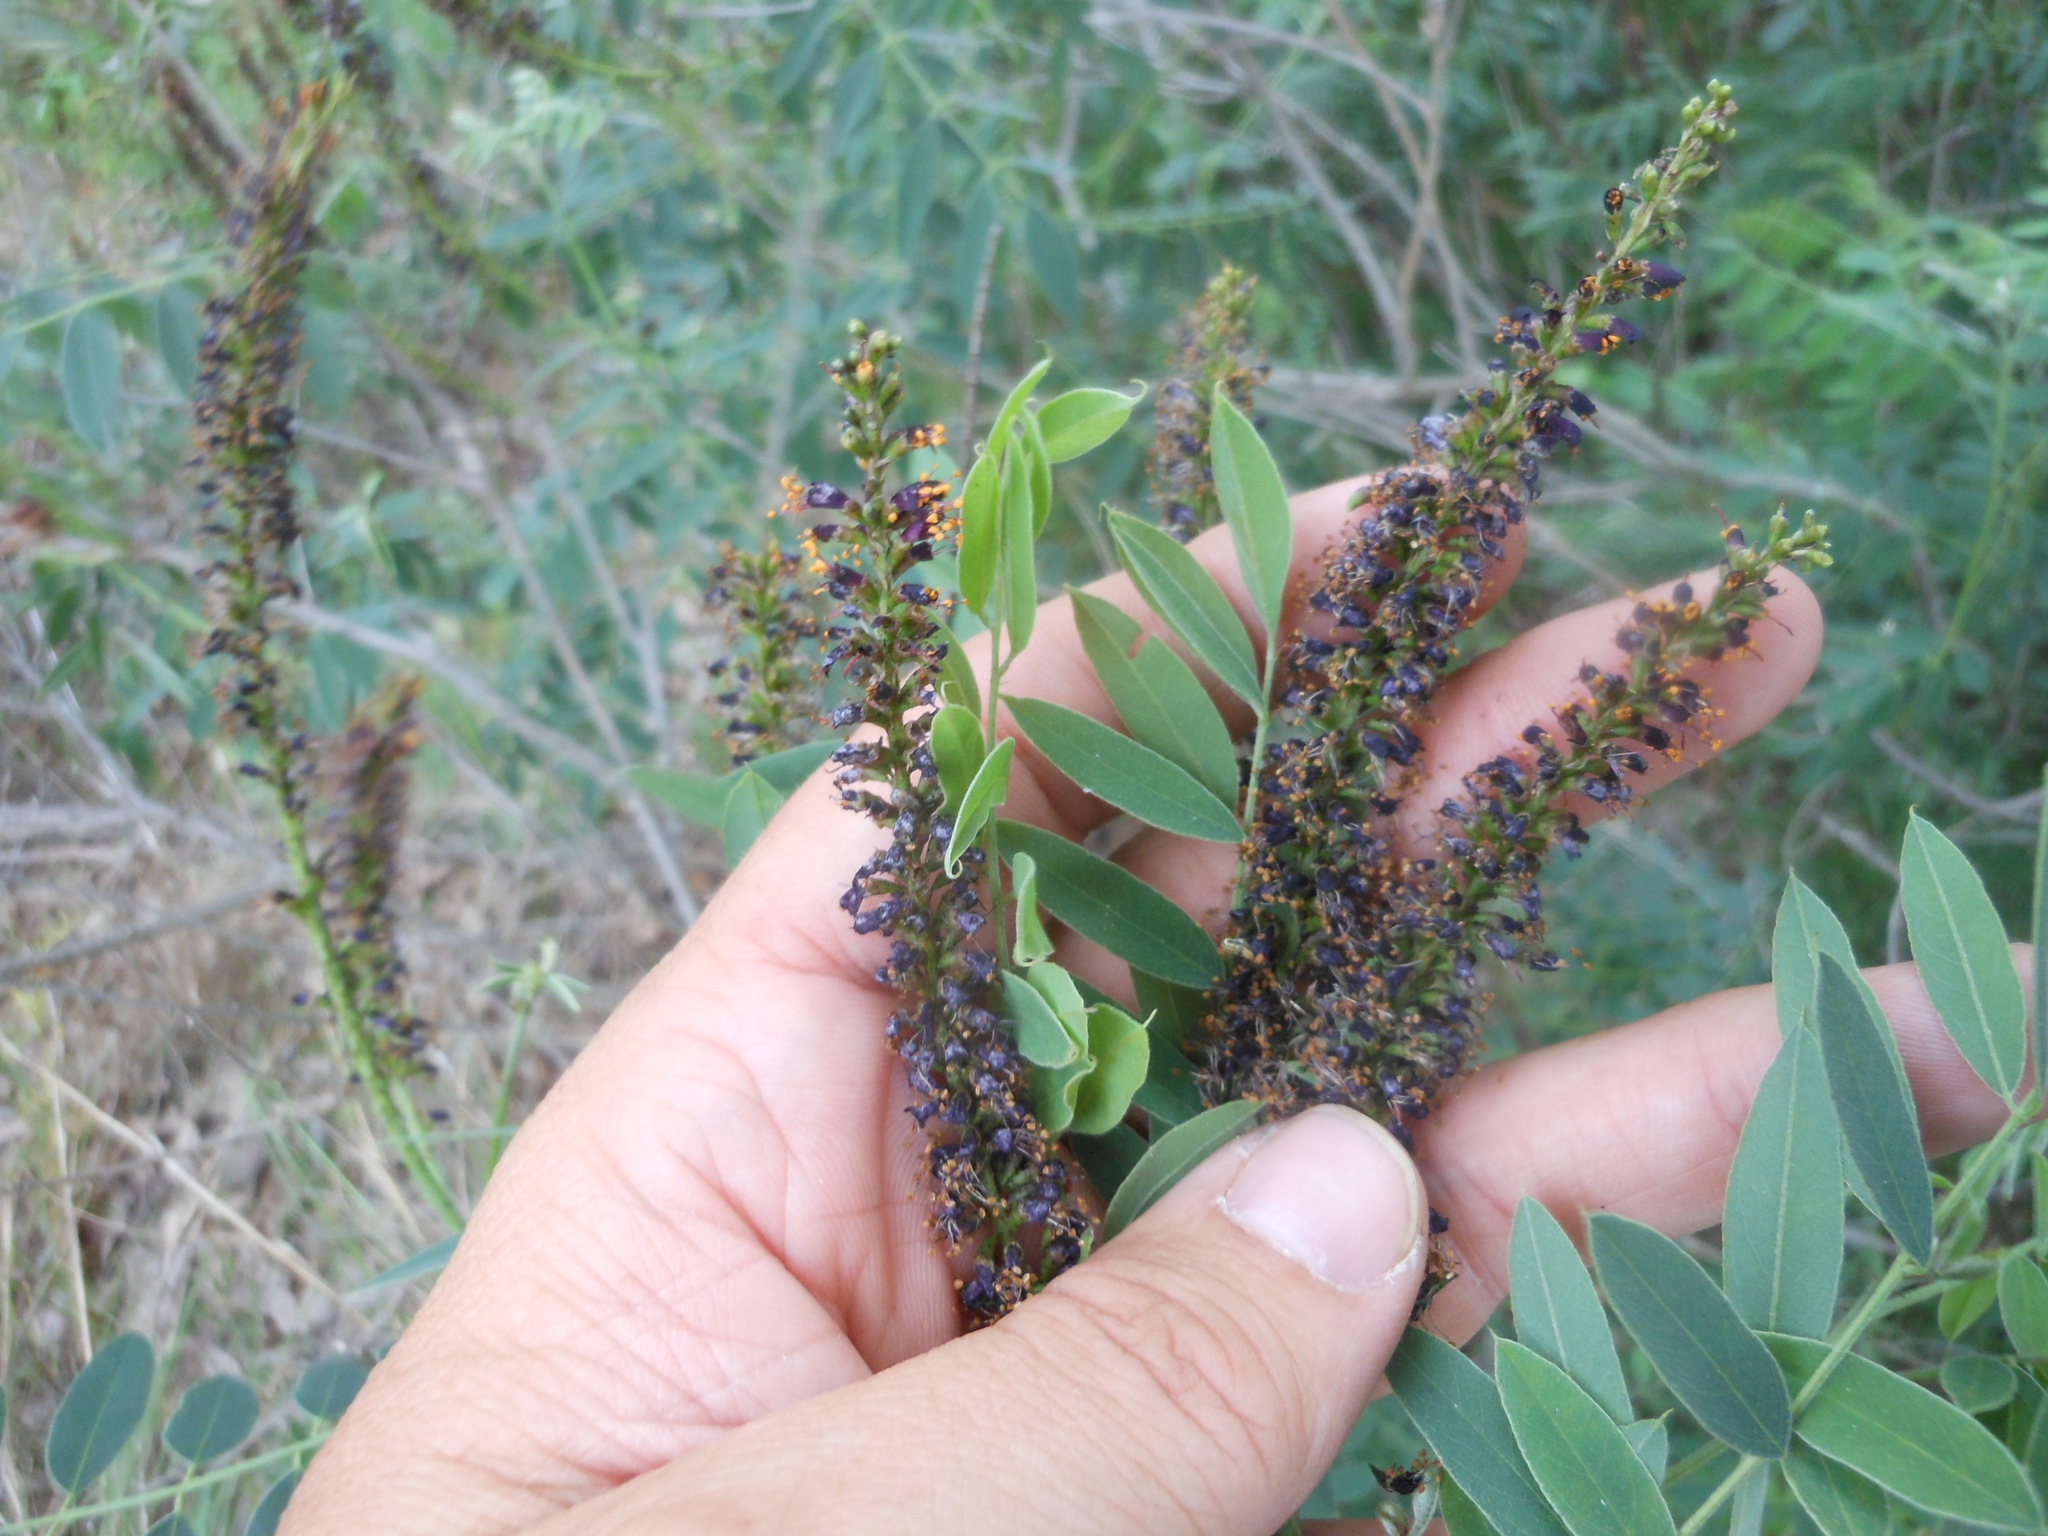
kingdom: Plantae
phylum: Tracheophyta
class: Magnoliopsida
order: Fabales
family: Fabaceae
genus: Amorpha
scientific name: Amorpha fruticosa
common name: False indigo
